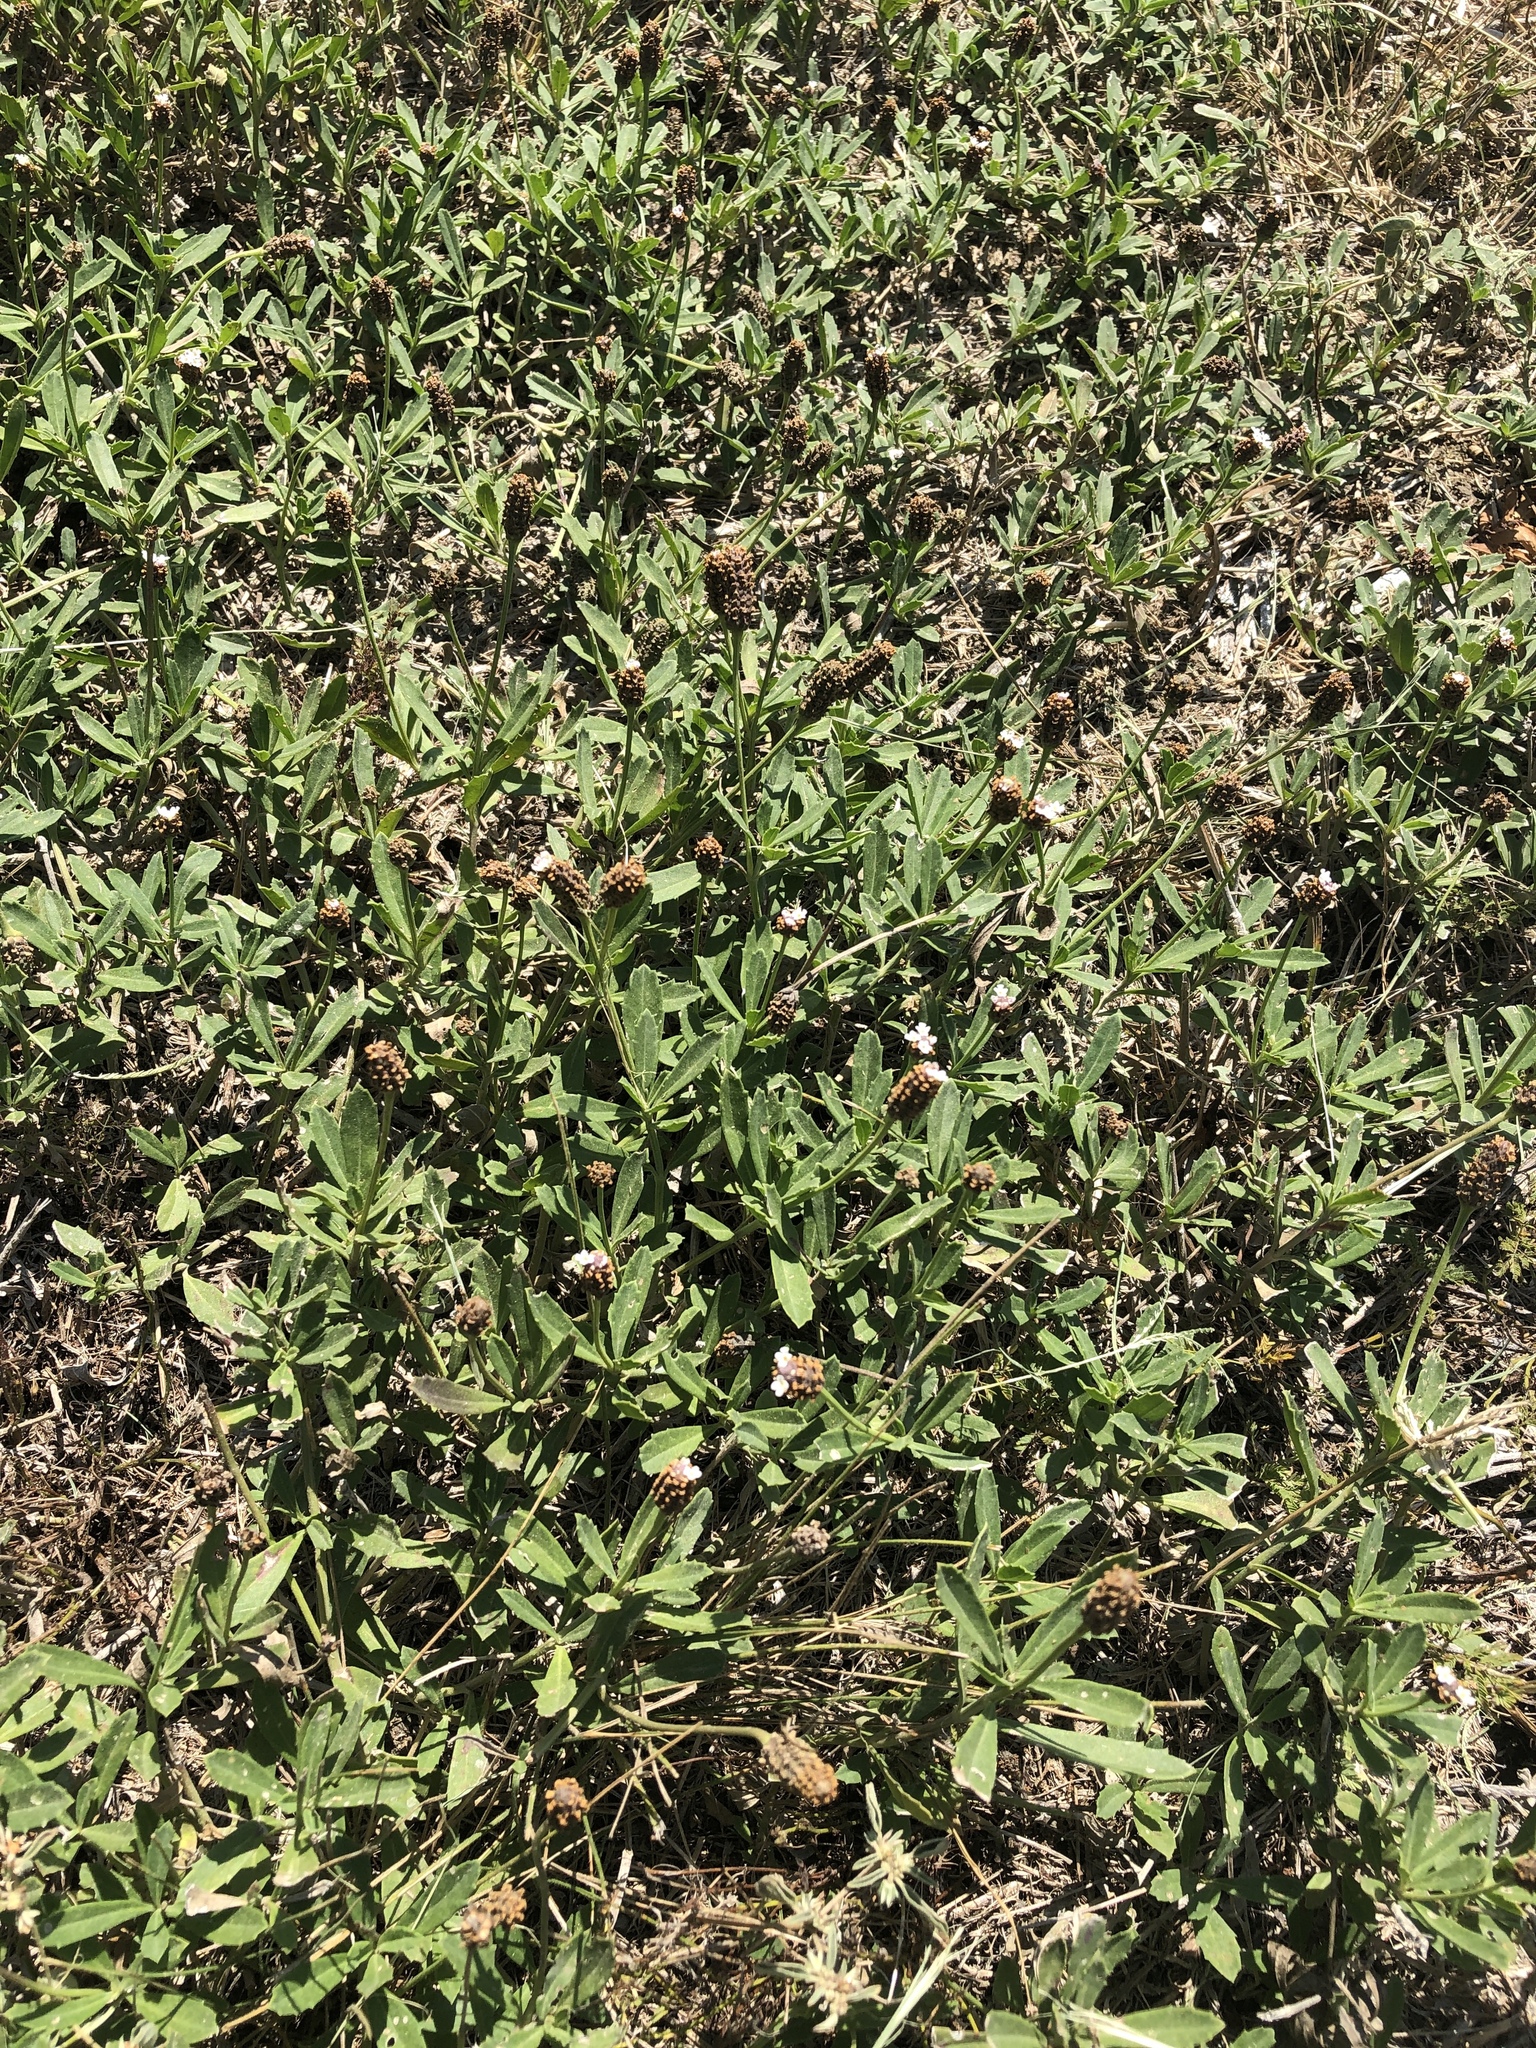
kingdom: Plantae
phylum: Tracheophyta
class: Magnoliopsida
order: Lamiales
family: Verbenaceae
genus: Phyla
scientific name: Phyla nodiflora
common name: Frogfruit
